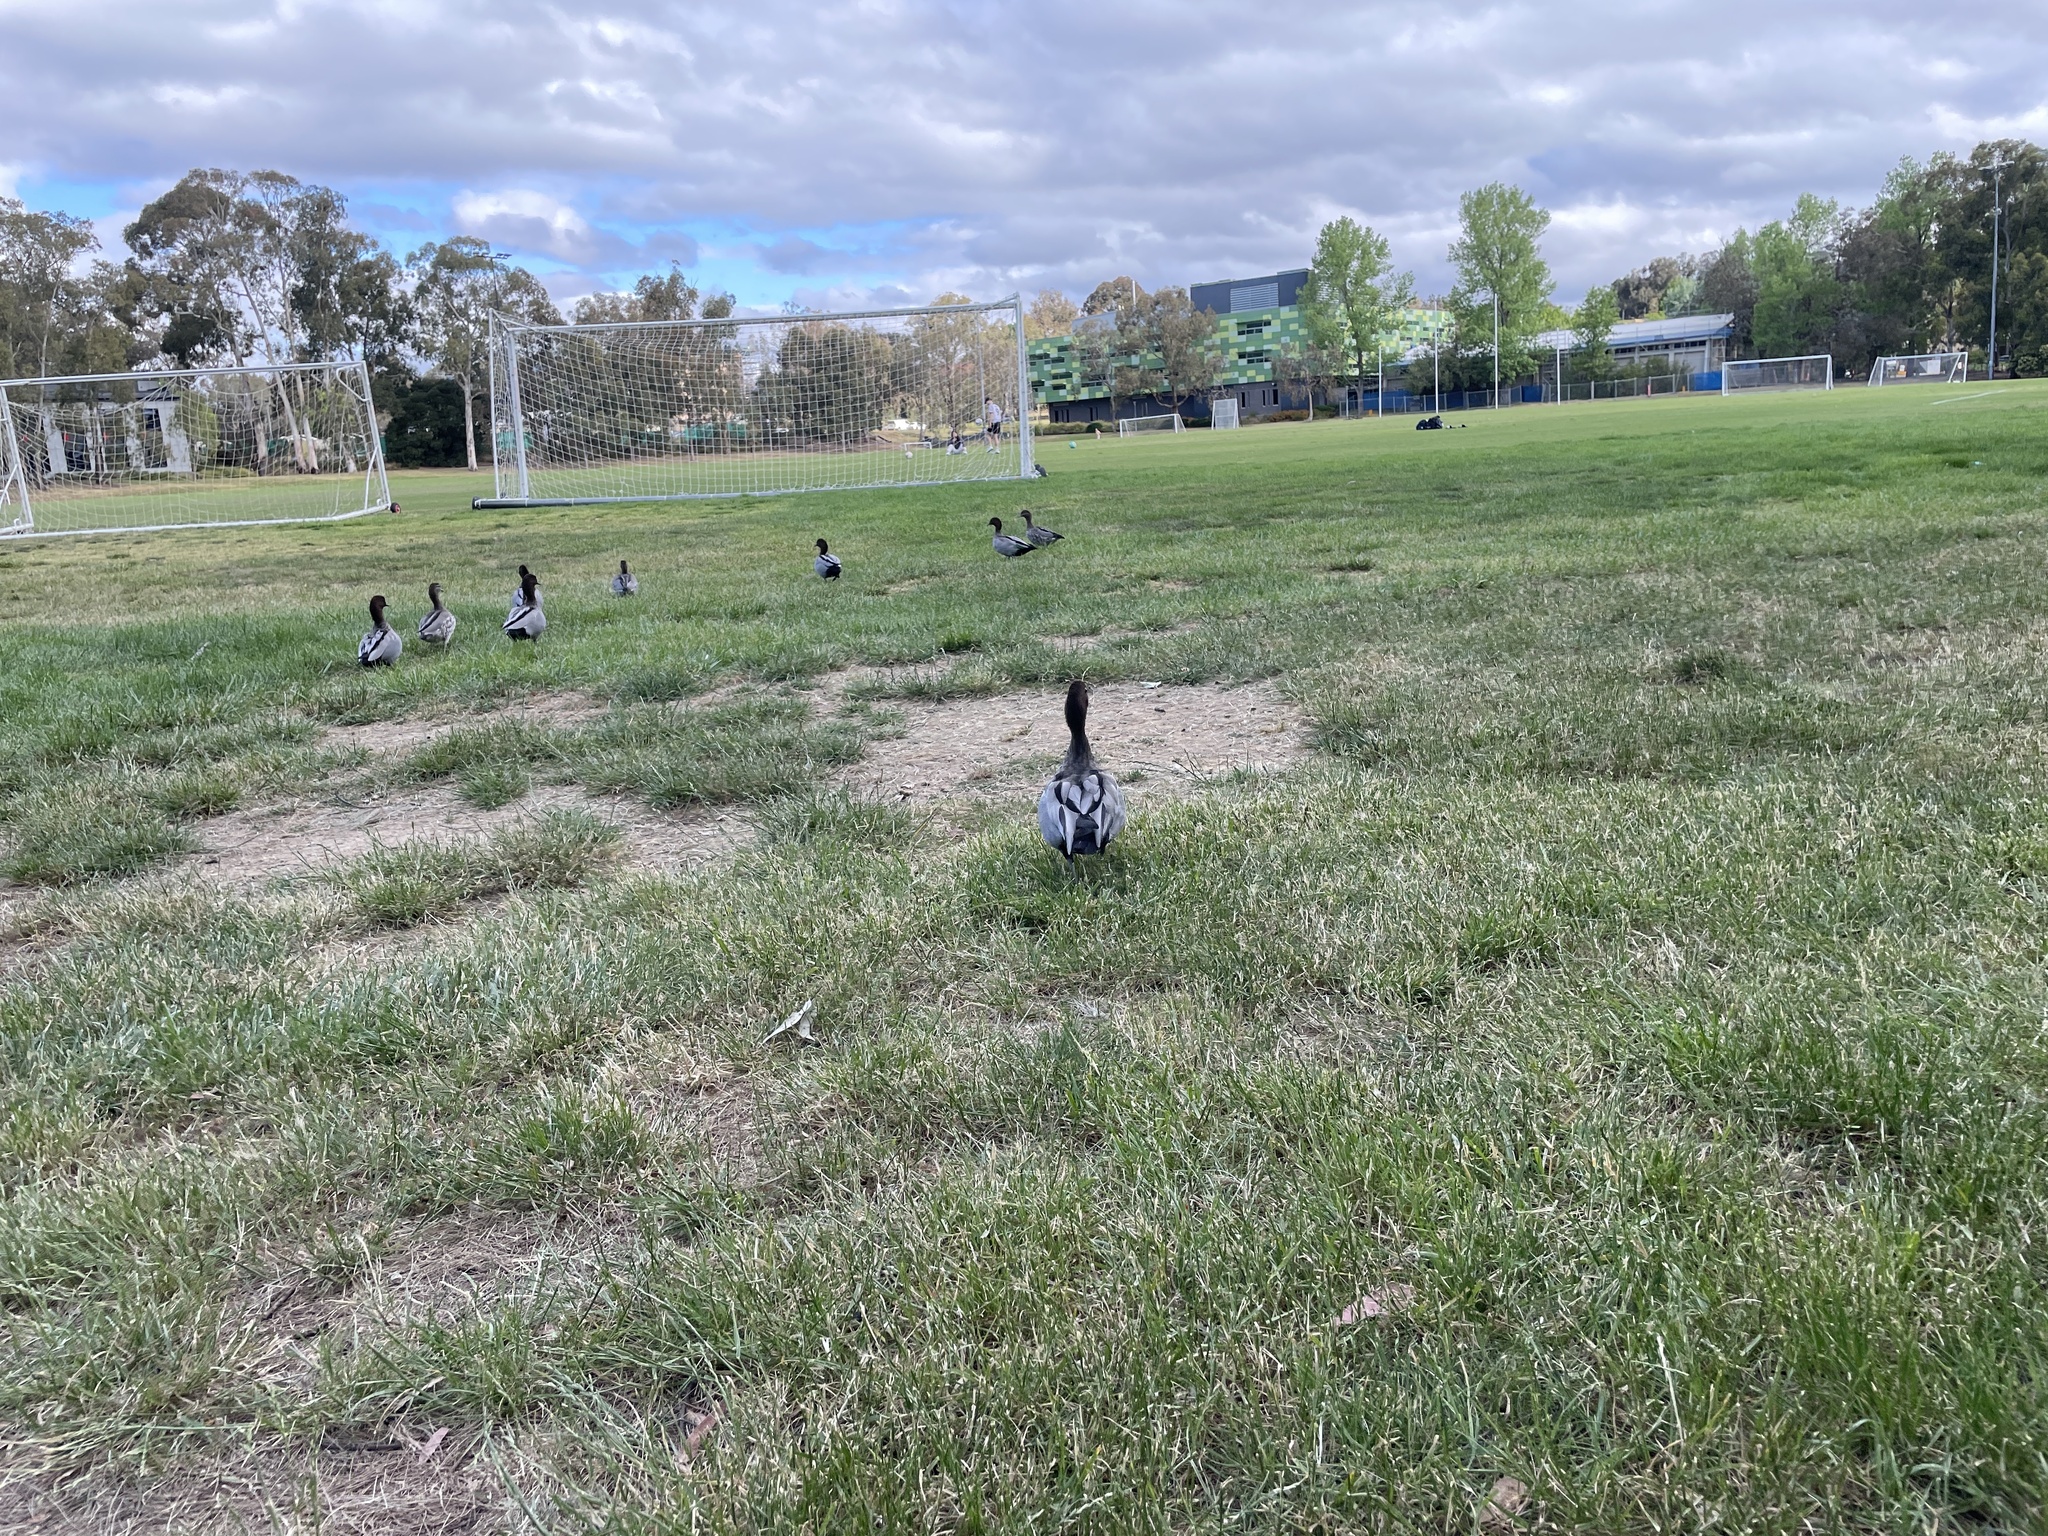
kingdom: Animalia
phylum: Chordata
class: Aves
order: Anseriformes
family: Anatidae
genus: Chenonetta
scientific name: Chenonetta jubata
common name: Maned duck
